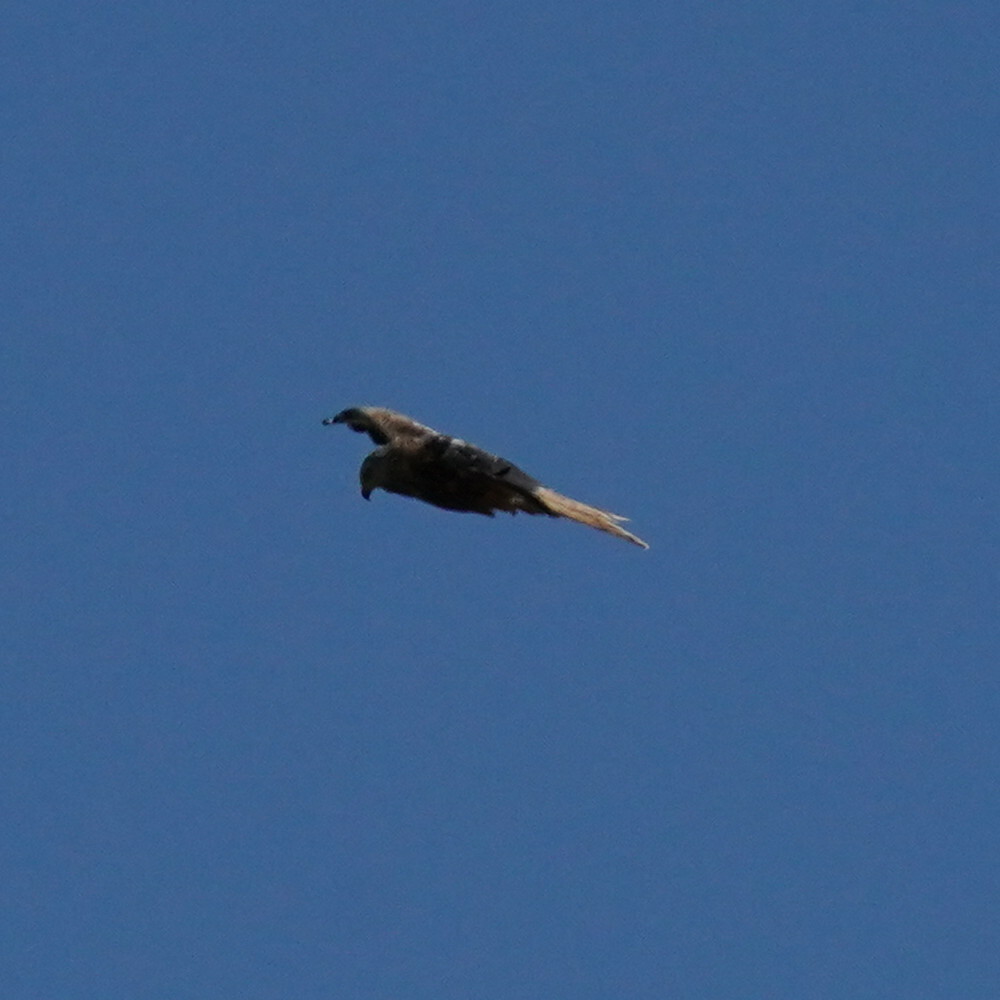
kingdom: Animalia
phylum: Chordata
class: Aves
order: Accipitriformes
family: Accipitridae
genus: Milvus
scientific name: Milvus milvus
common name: Red kite
